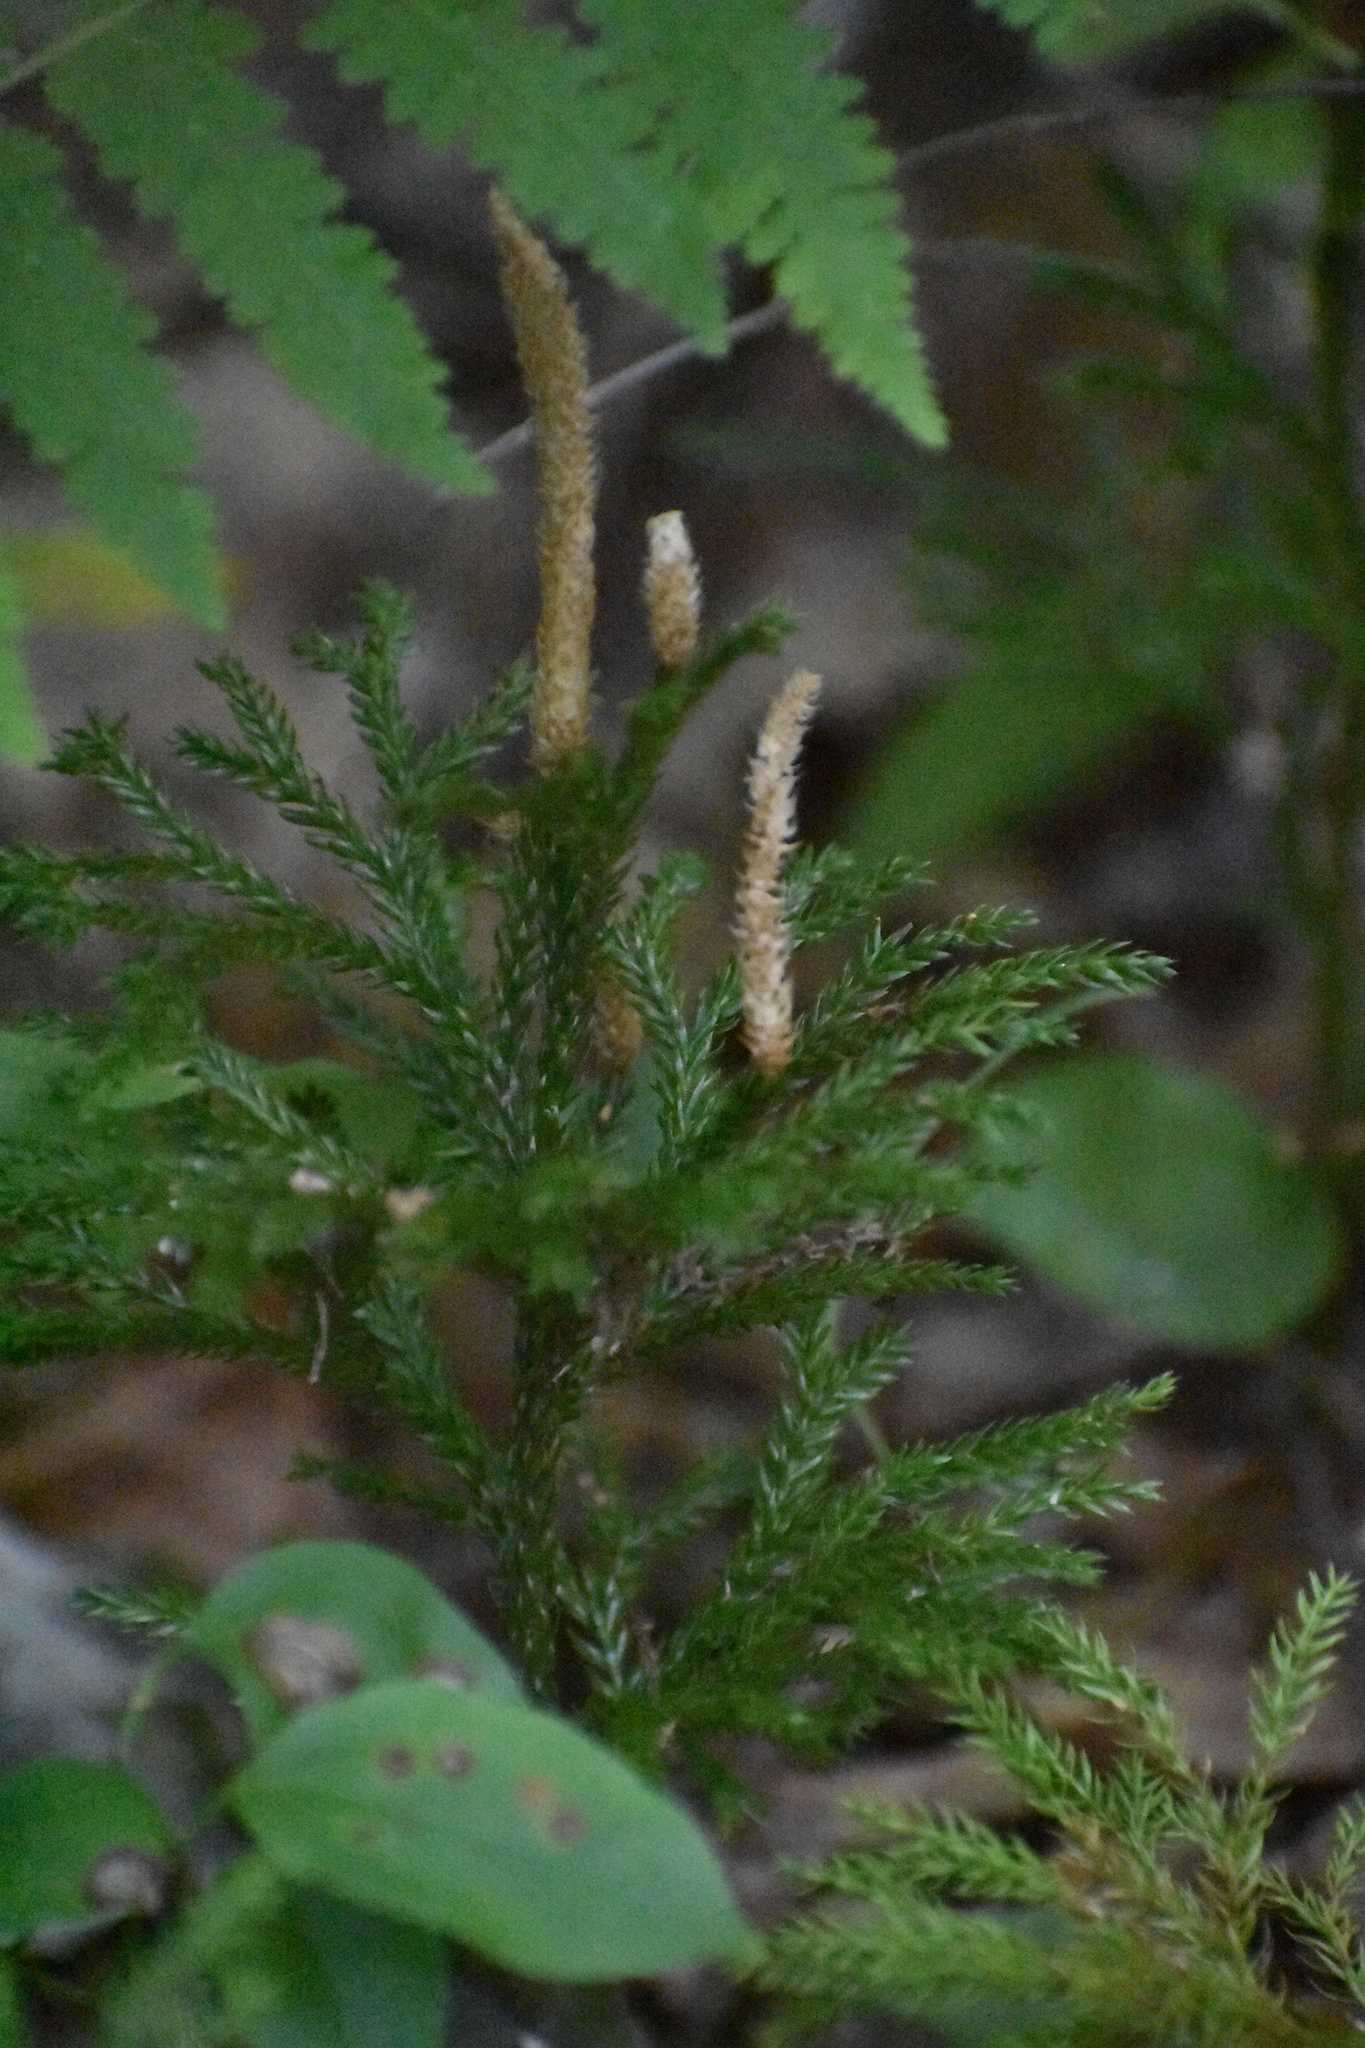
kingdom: Plantae
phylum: Tracheophyta
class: Lycopodiopsida
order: Lycopodiales
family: Lycopodiaceae
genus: Dendrolycopodium
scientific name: Dendrolycopodium obscurum
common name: Common ground-pine
